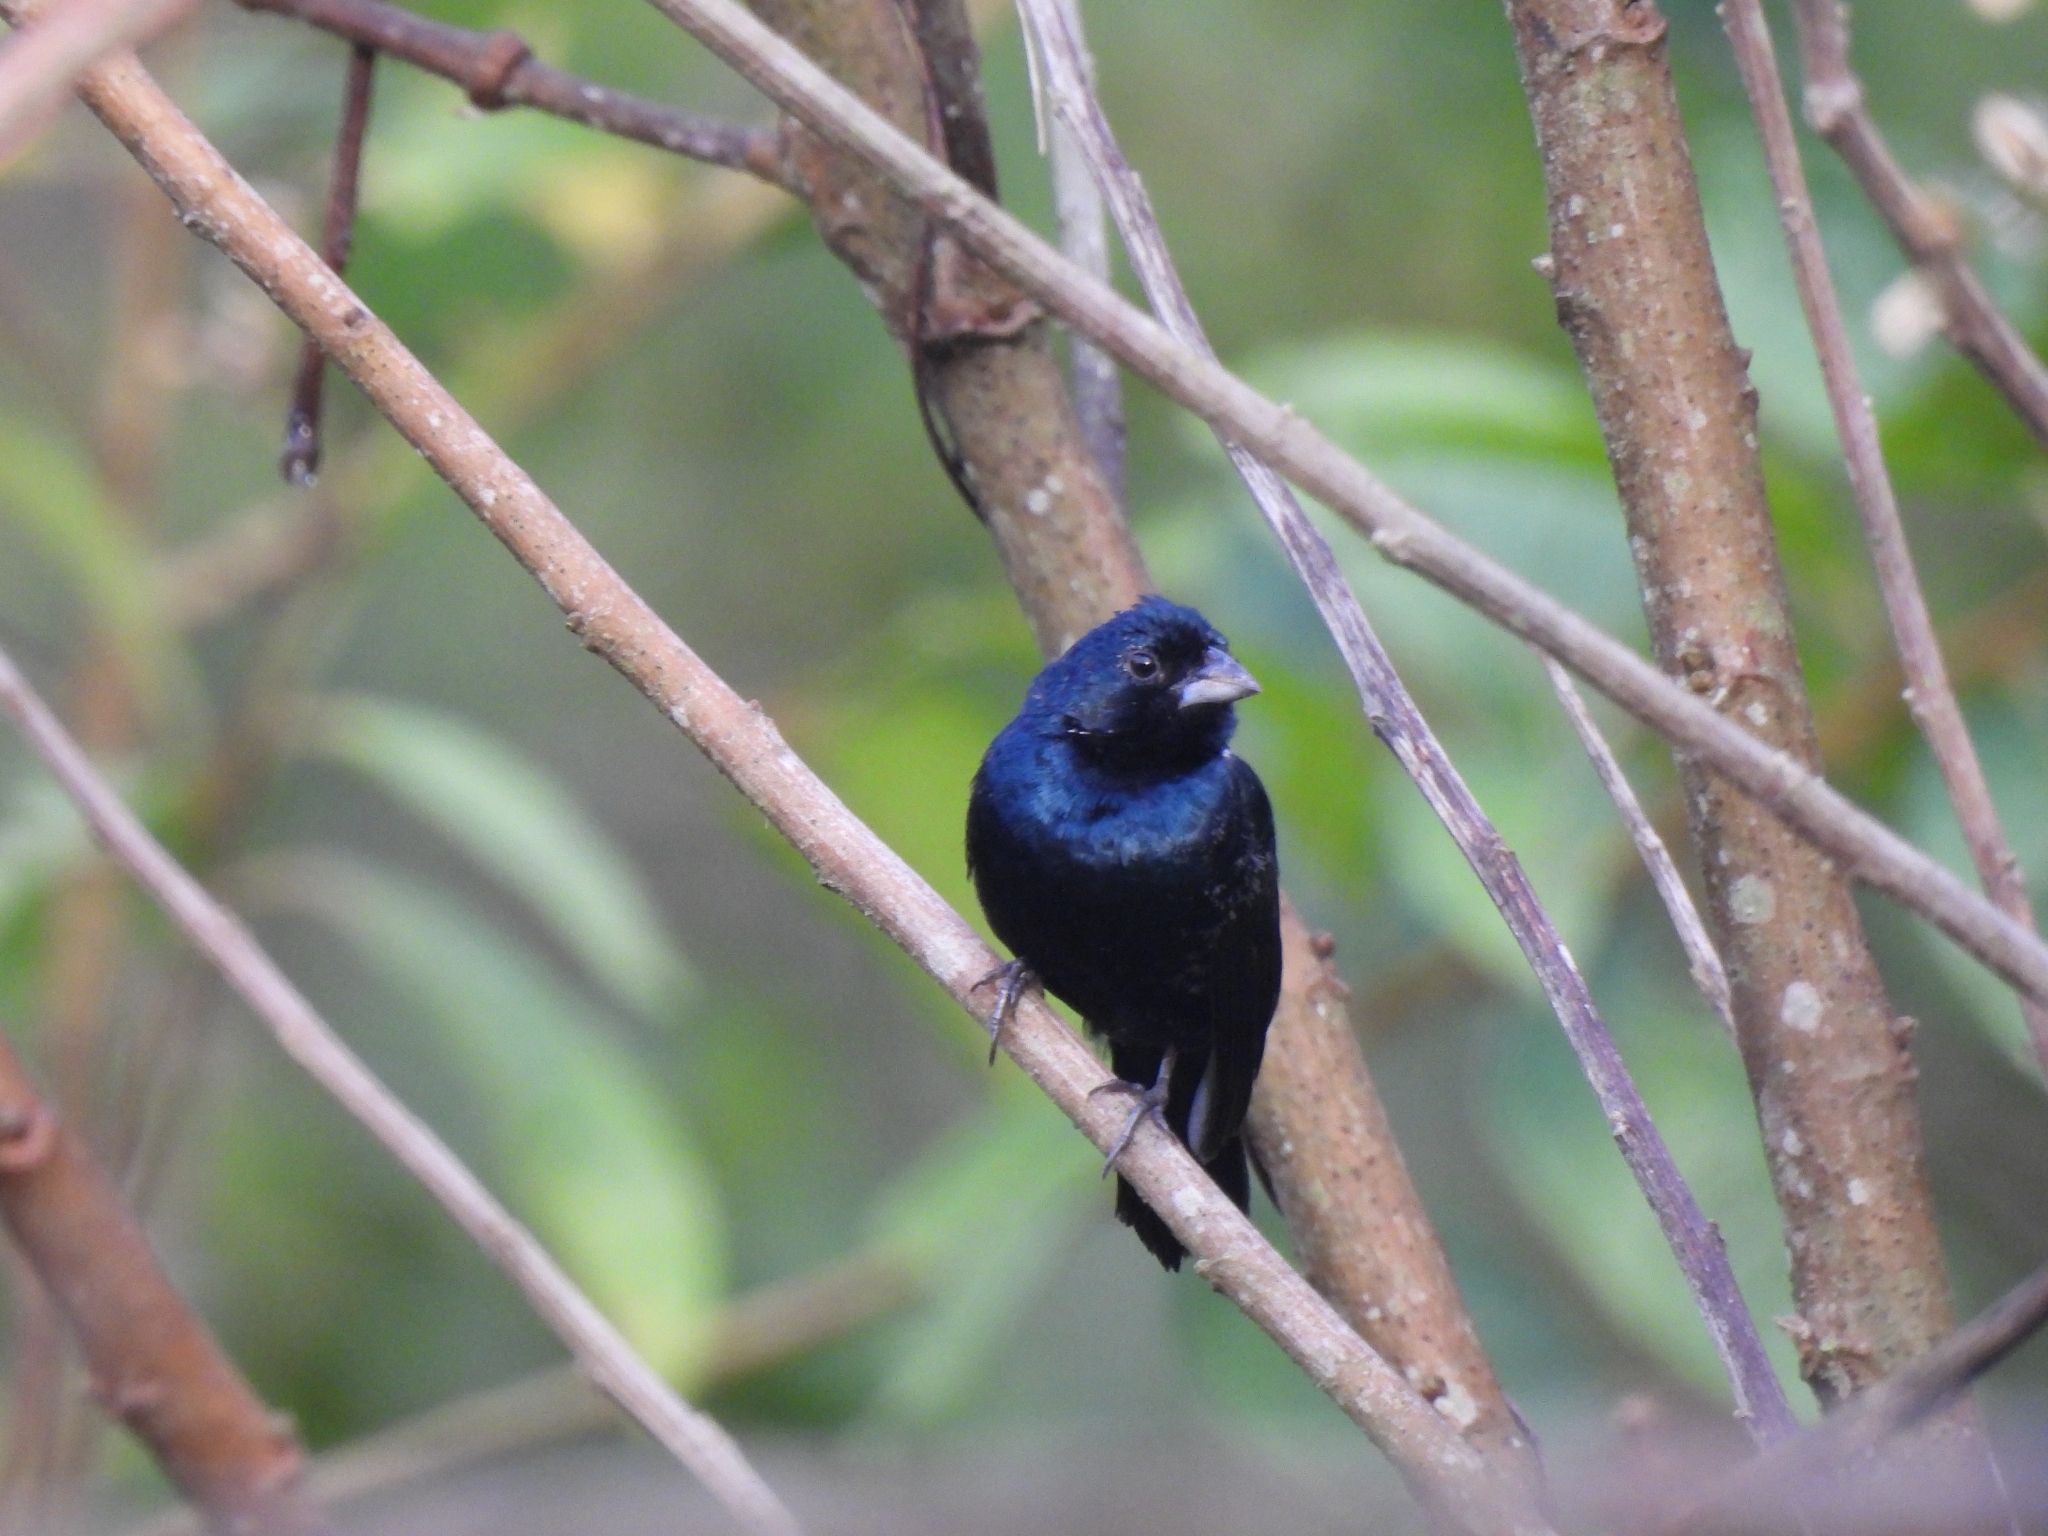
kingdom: Animalia
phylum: Chordata
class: Aves
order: Passeriformes
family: Thraupidae
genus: Volatinia
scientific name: Volatinia jacarina
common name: Blue-black grassquit
